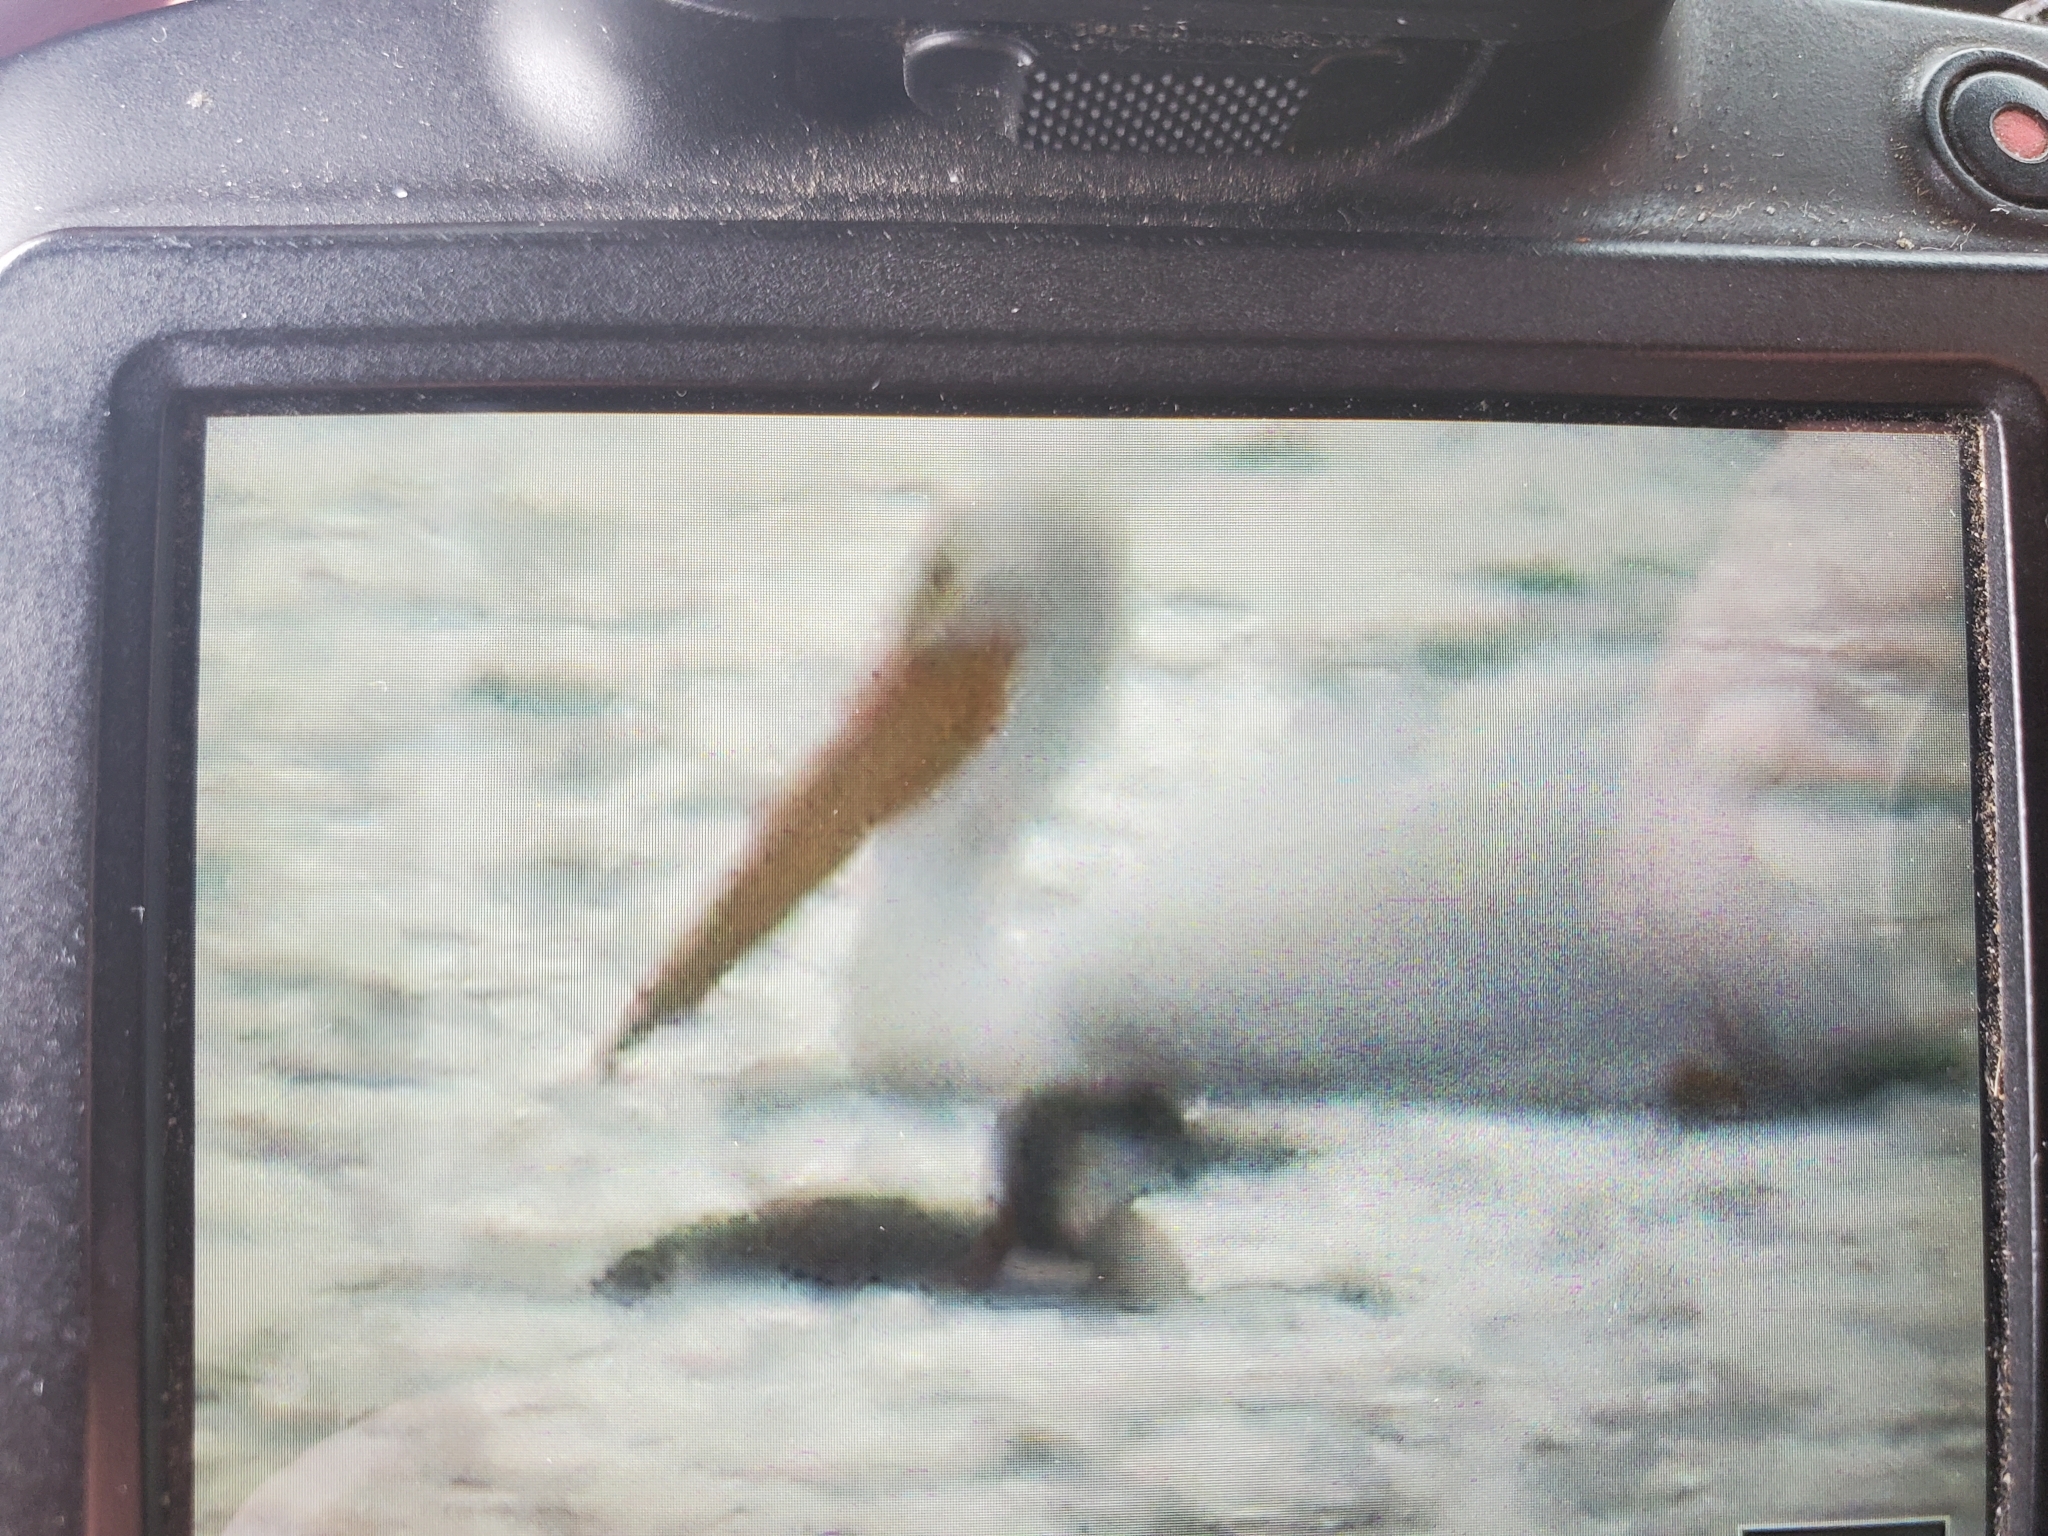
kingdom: Animalia
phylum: Chordata
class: Aves
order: Gaviiformes
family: Gaviidae
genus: Gavia
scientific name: Gavia immer
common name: Common loon
